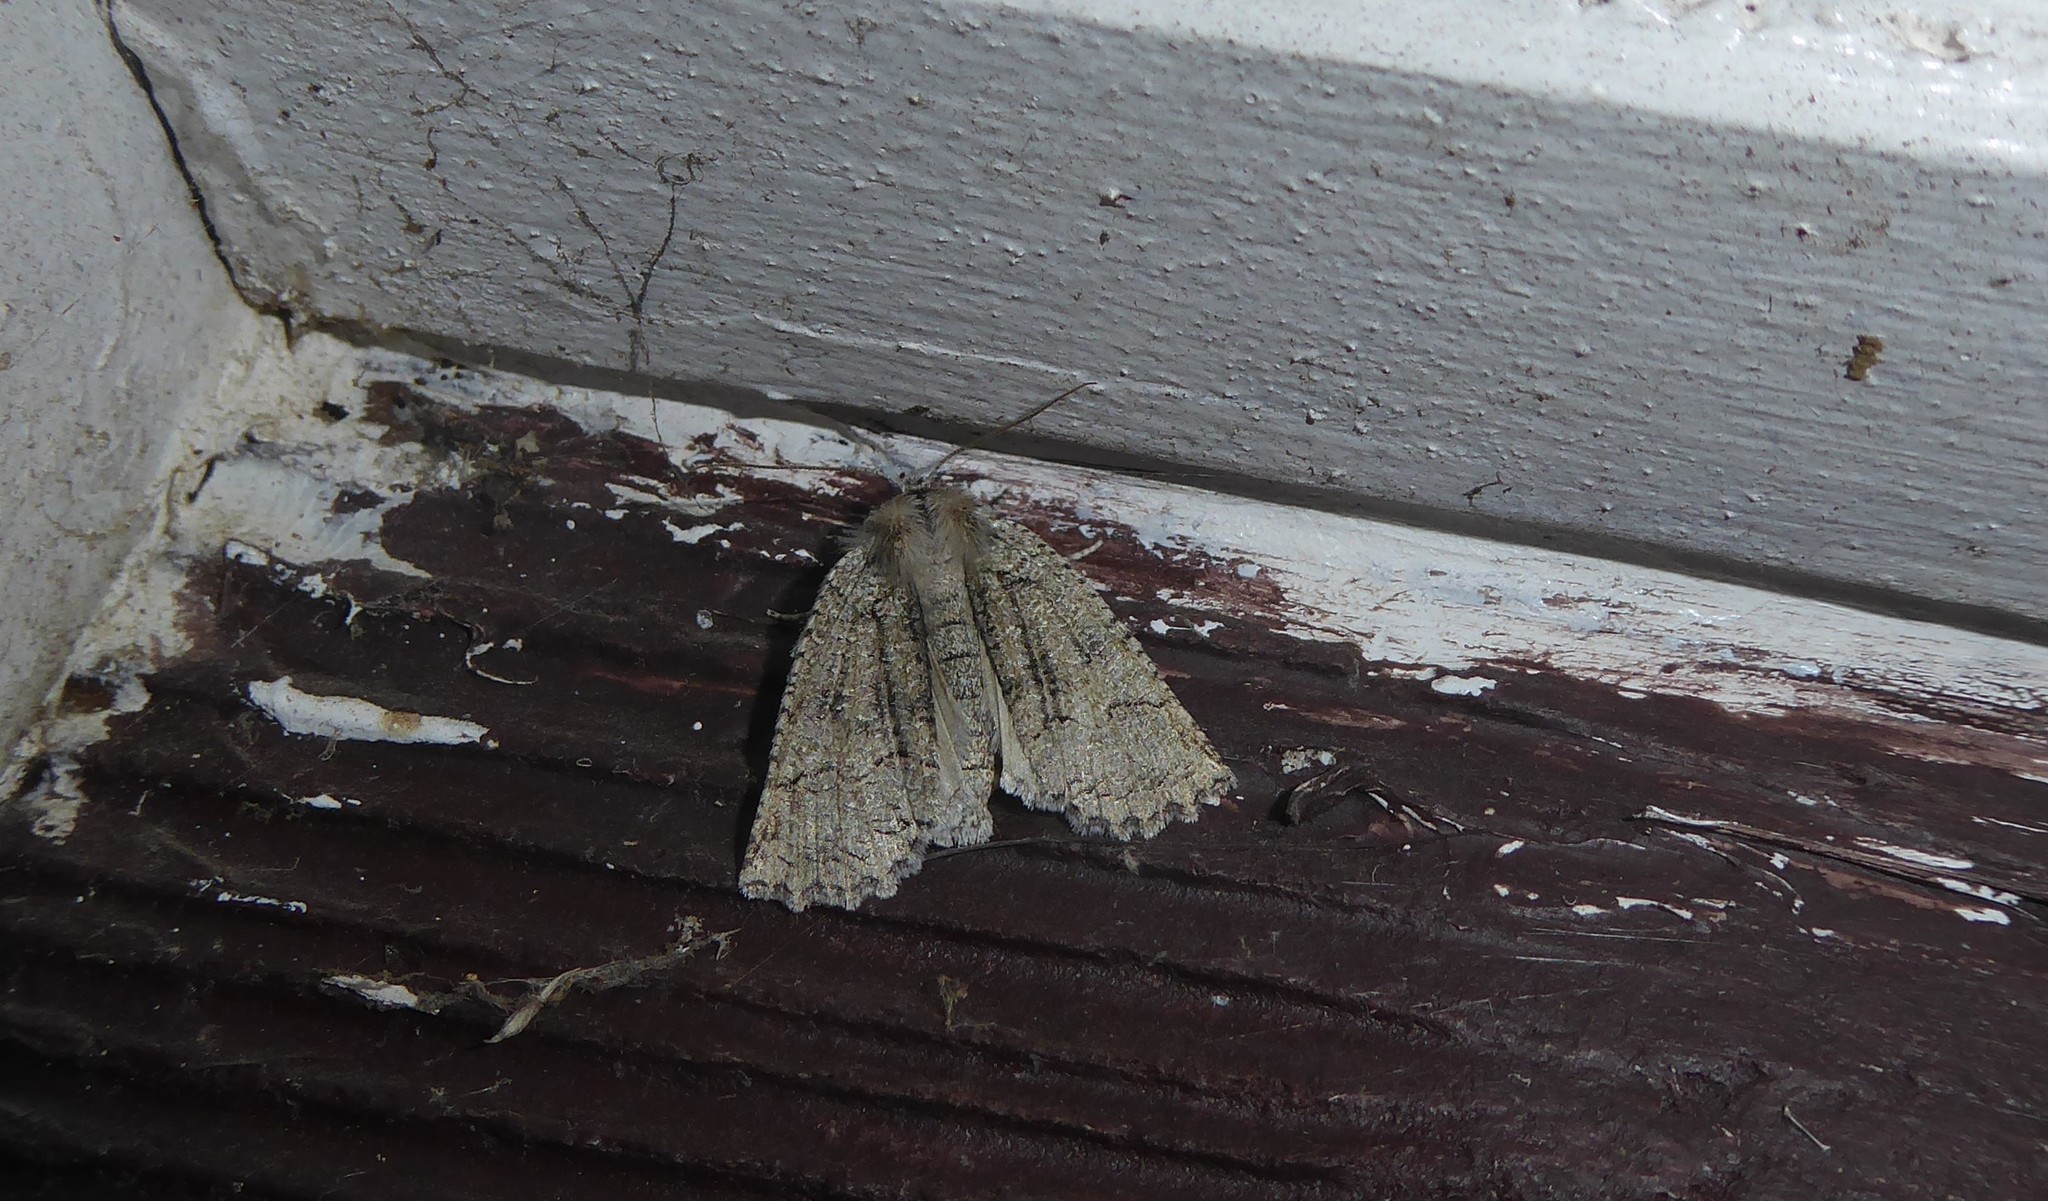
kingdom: Animalia
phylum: Arthropoda
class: Insecta
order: Lepidoptera
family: Geometridae
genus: Declana
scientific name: Declana floccosa
